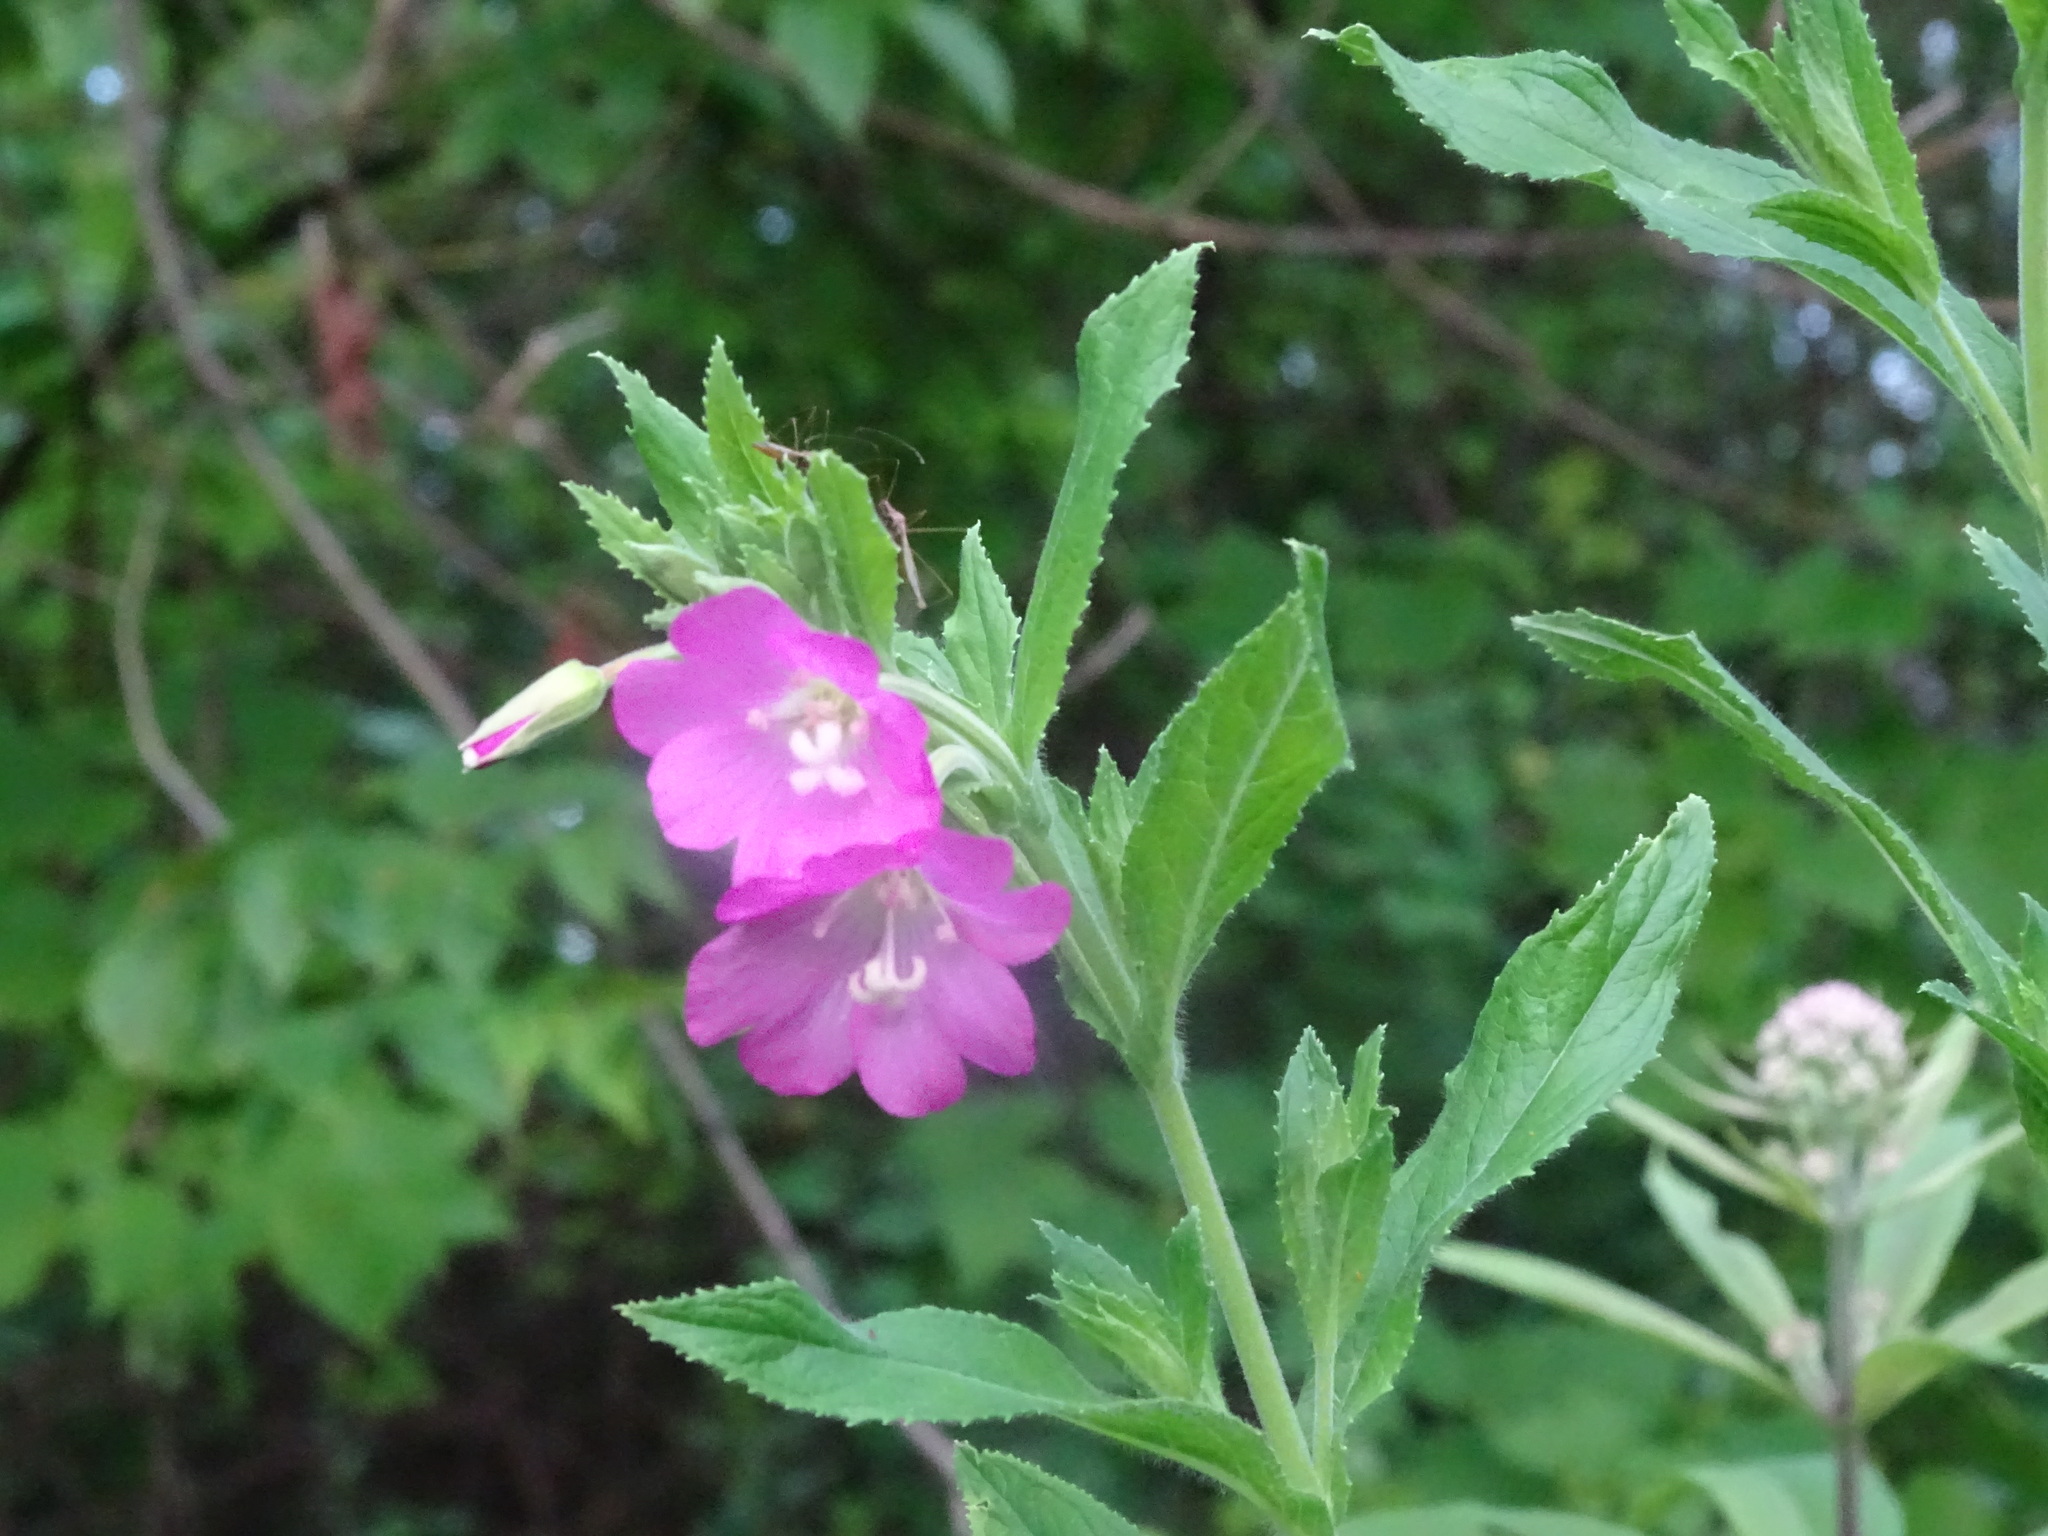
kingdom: Plantae
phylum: Tracheophyta
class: Magnoliopsida
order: Myrtales
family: Onagraceae
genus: Epilobium
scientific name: Epilobium hirsutum
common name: Great willowherb
